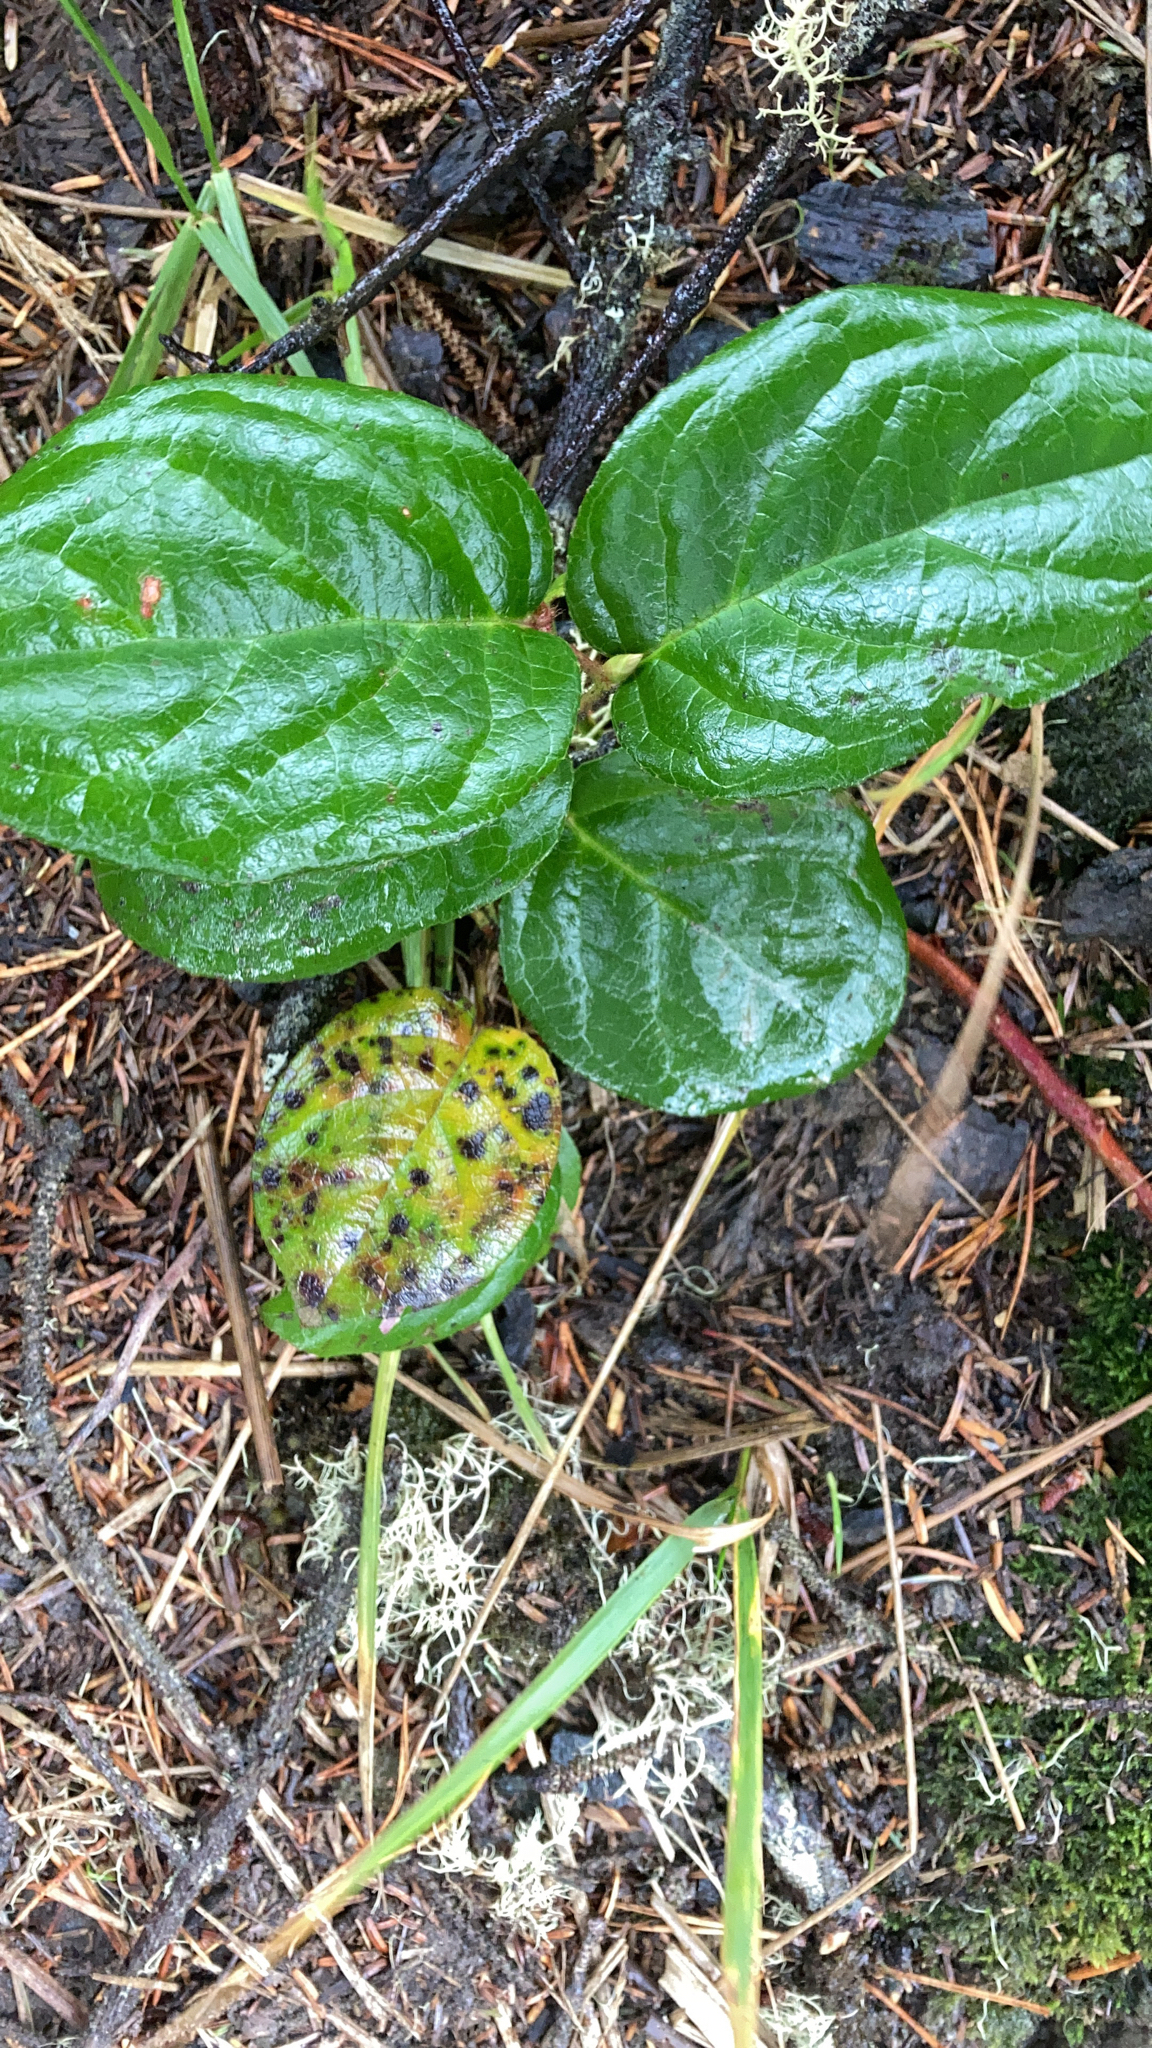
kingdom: Plantae
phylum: Tracheophyta
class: Magnoliopsida
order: Ericales
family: Ericaceae
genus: Gaultheria
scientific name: Gaultheria shallon
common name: Shallon
